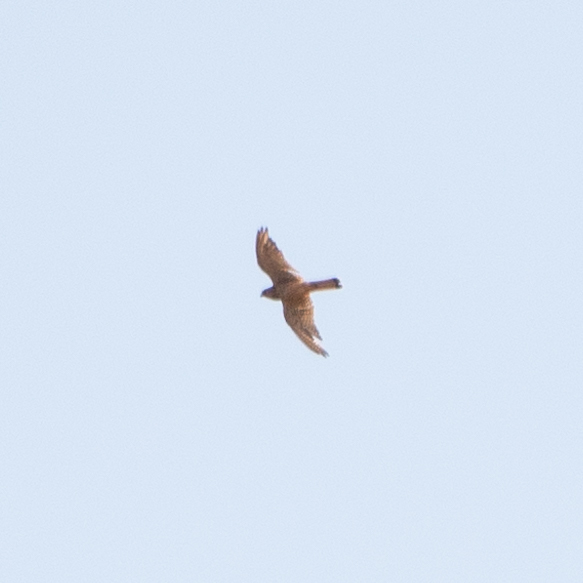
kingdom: Animalia
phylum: Chordata
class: Aves
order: Falconiformes
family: Falconidae
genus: Falco
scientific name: Falco tinnunculus
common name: Common kestrel
